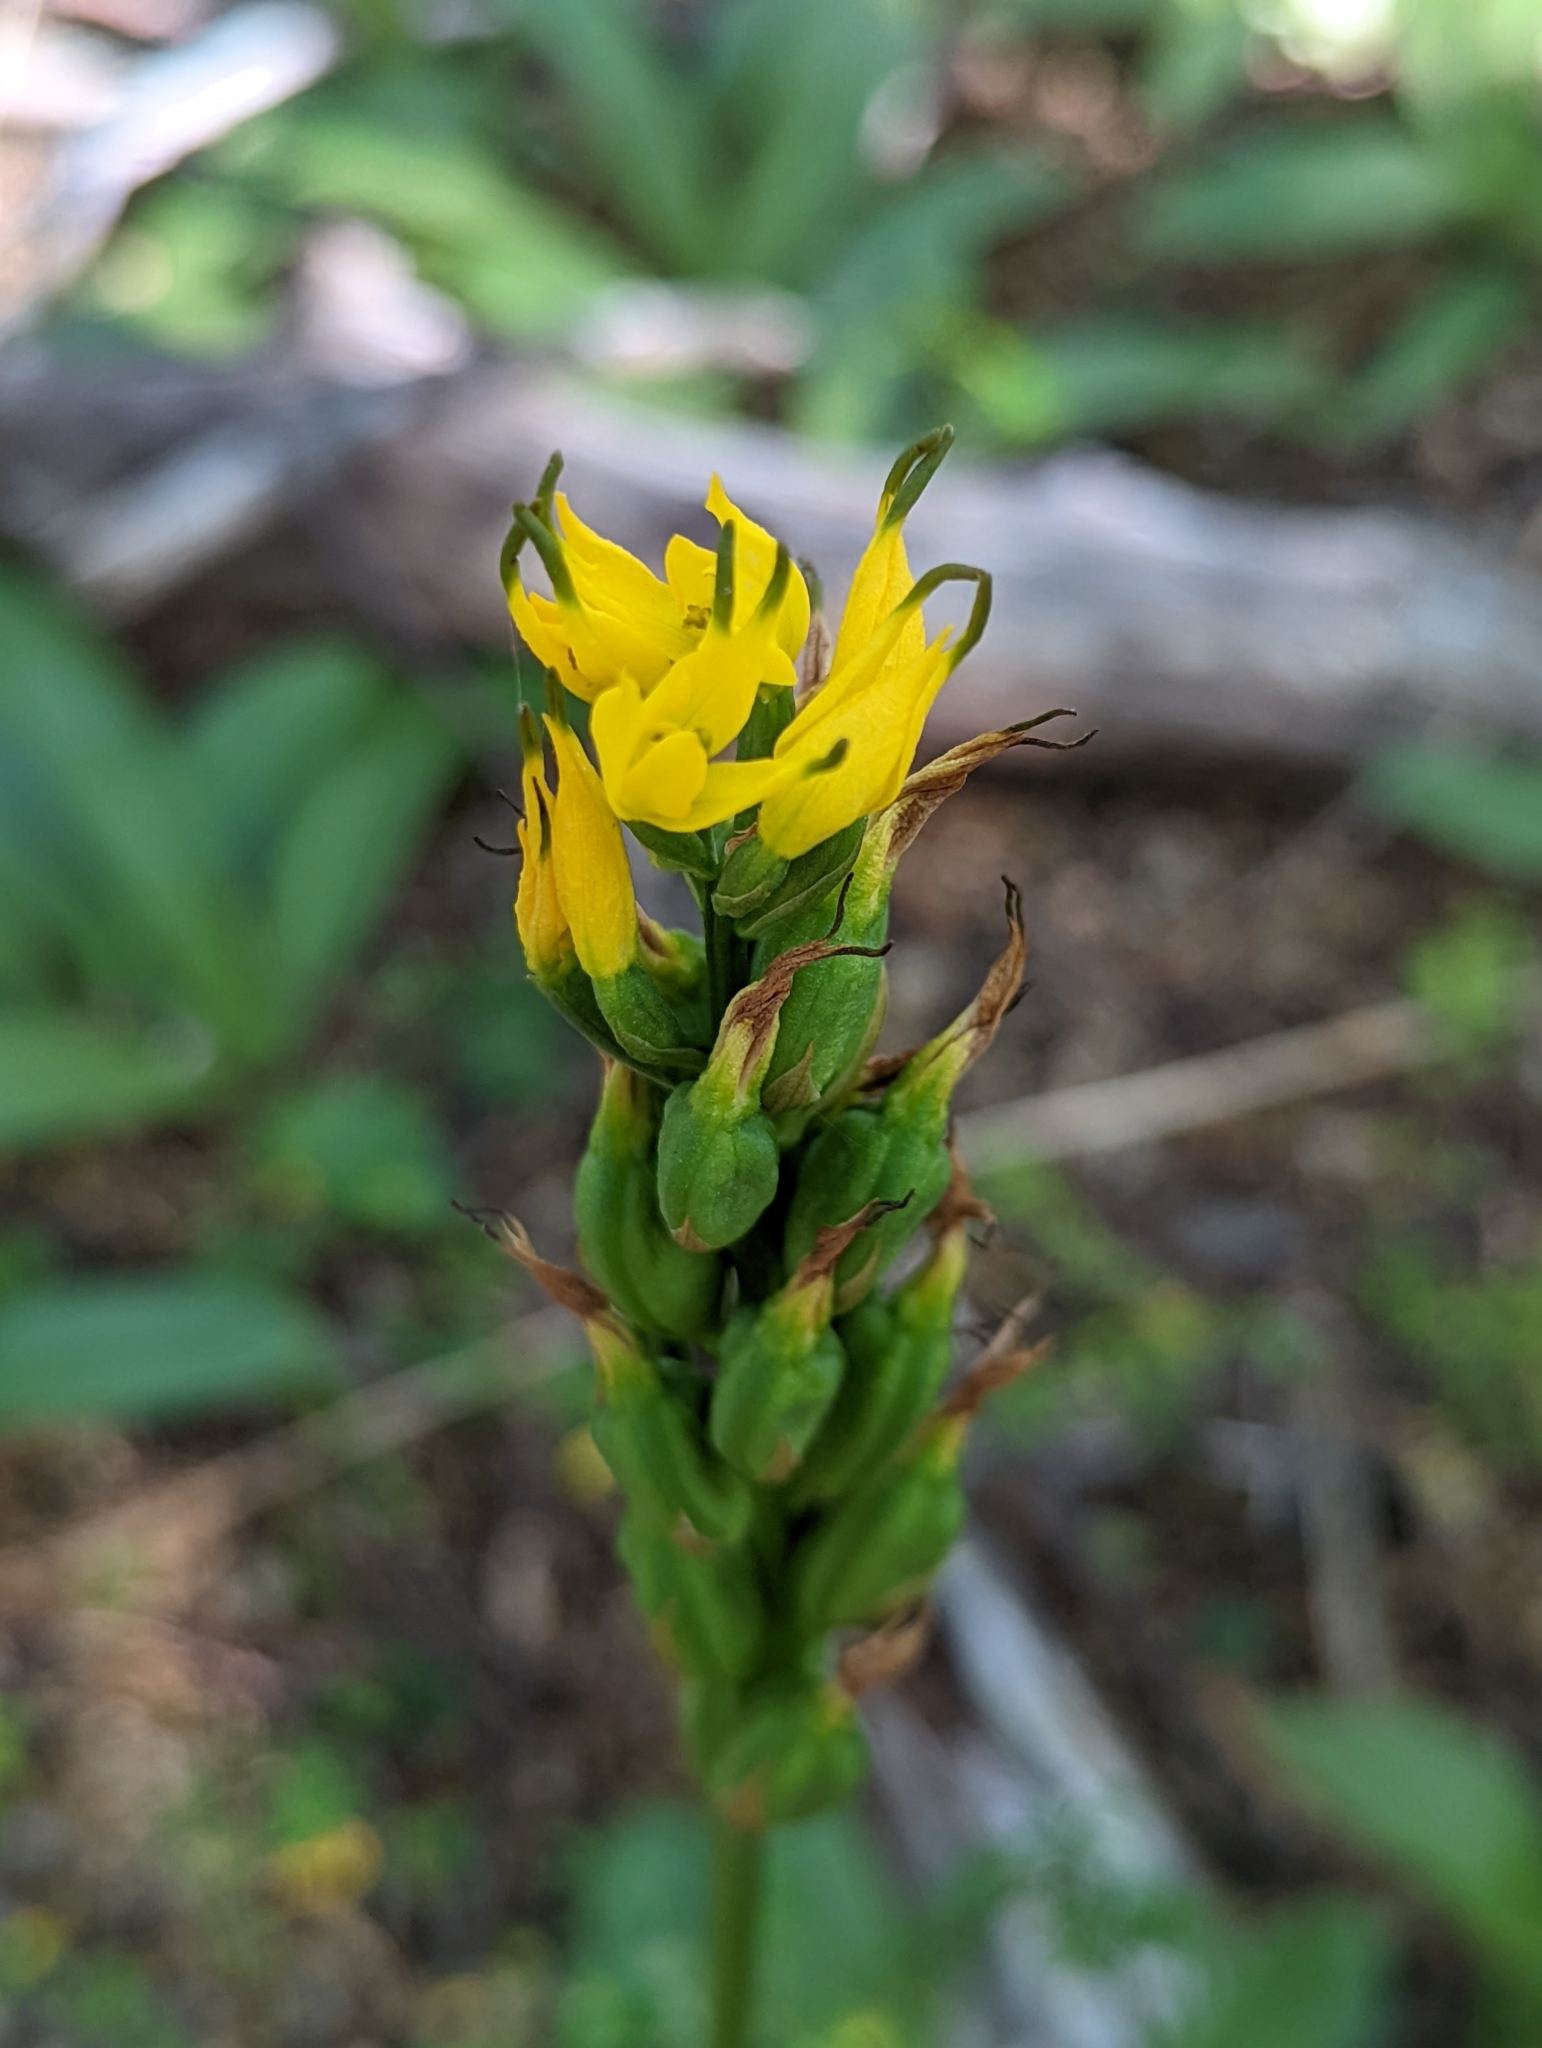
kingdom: Plantae
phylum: Tracheophyta
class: Liliopsida
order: Asparagales
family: Orchidaceae
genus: Gavilea
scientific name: Gavilea lutea
